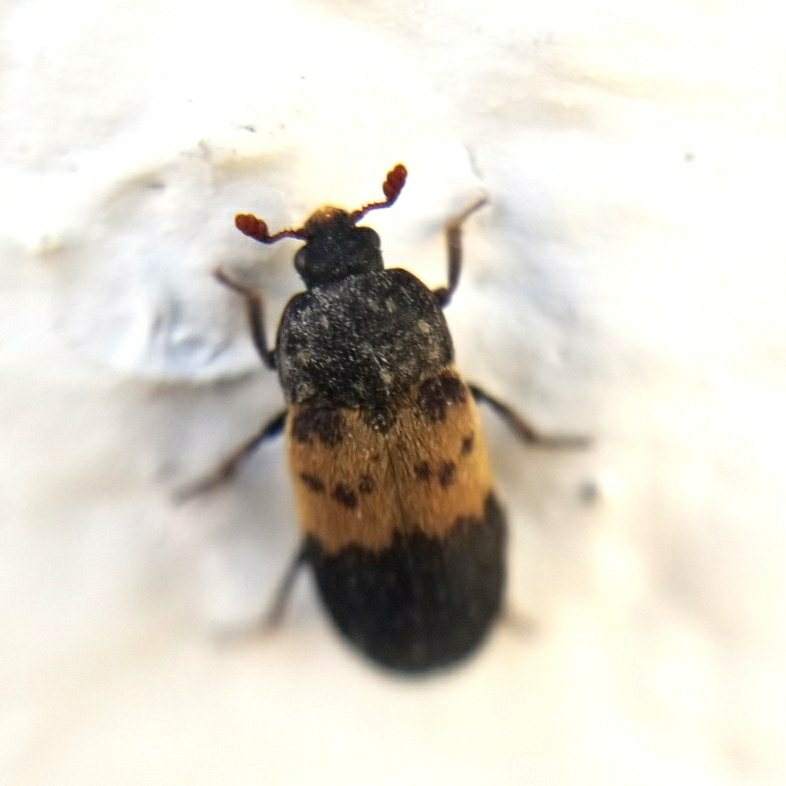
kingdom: Animalia
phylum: Arthropoda
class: Insecta
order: Coleoptera
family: Dermestidae
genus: Dermestes
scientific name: Dermestes lardarius
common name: Larder beetle
